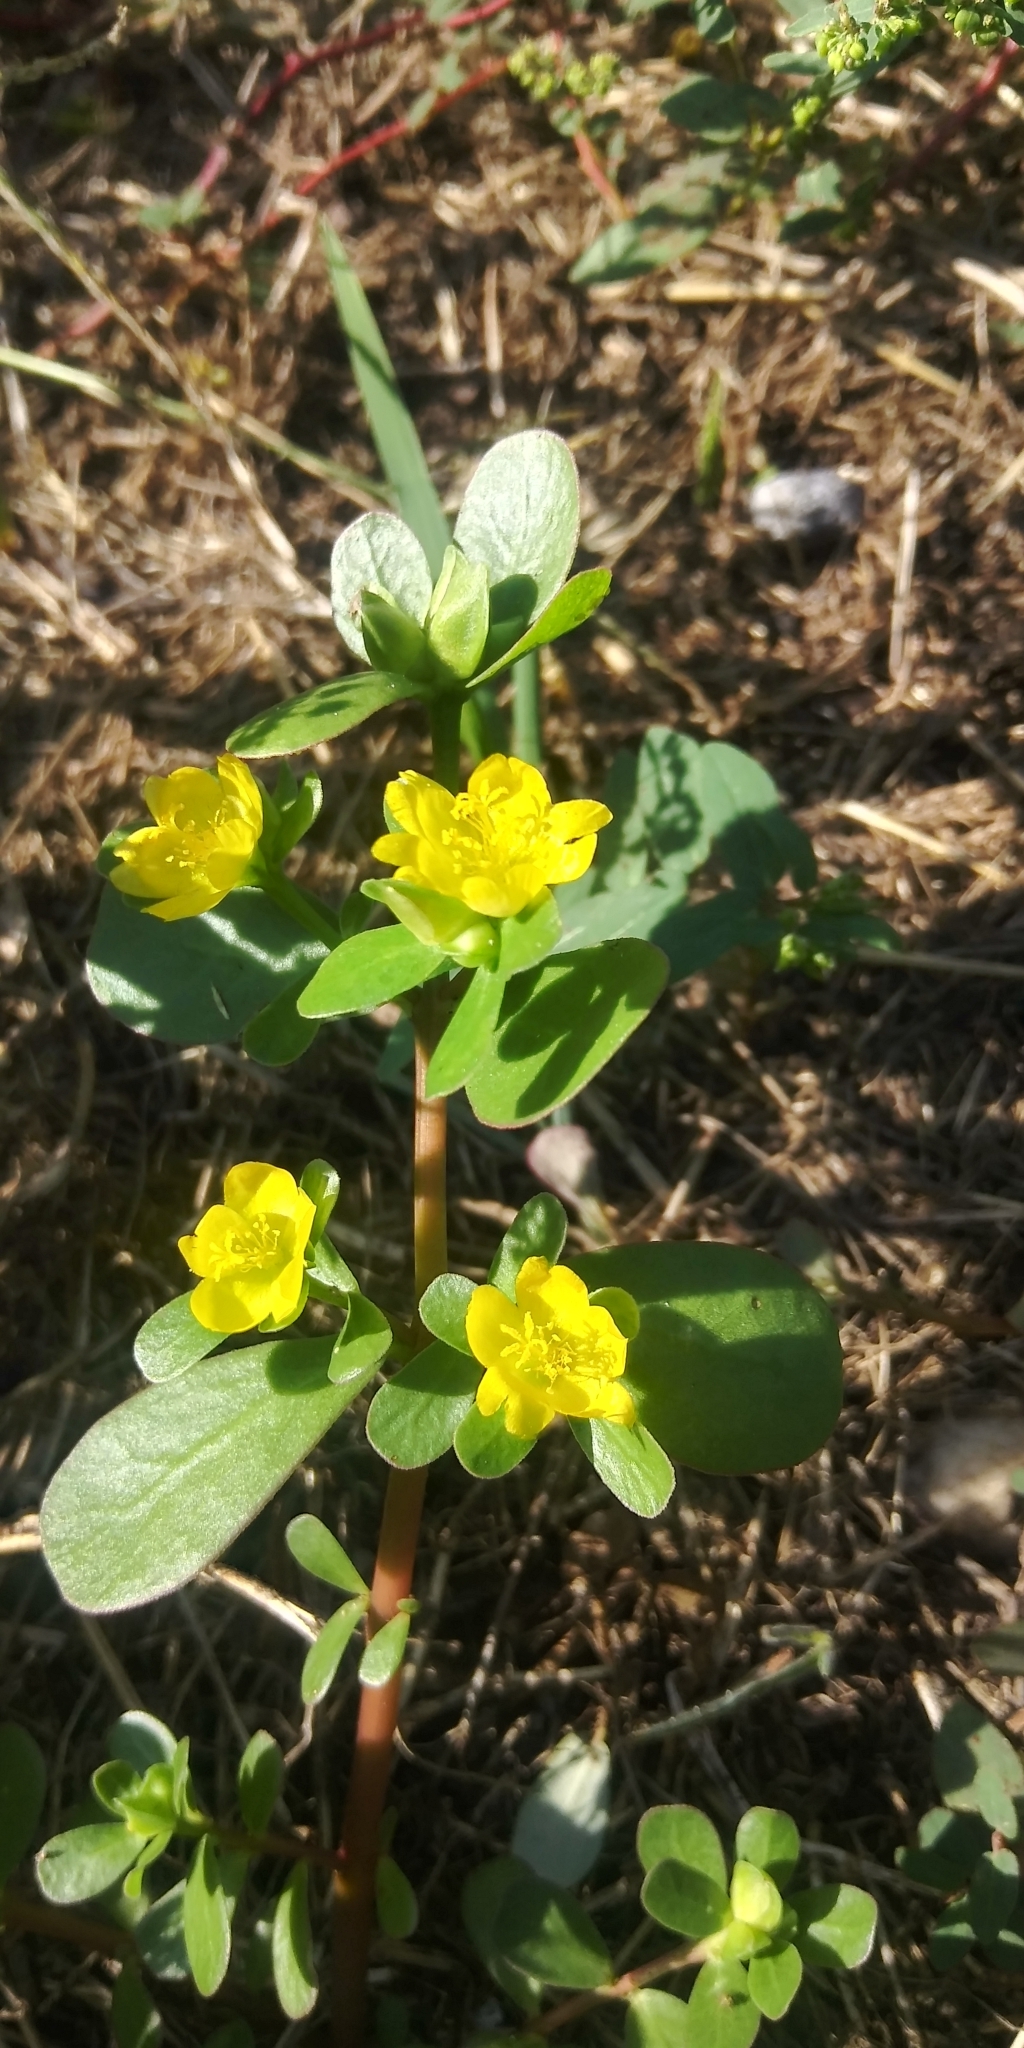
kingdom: Plantae
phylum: Tracheophyta
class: Magnoliopsida
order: Caryophyllales
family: Portulacaceae
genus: Portulaca
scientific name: Portulaca oleracea
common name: Common purslane
